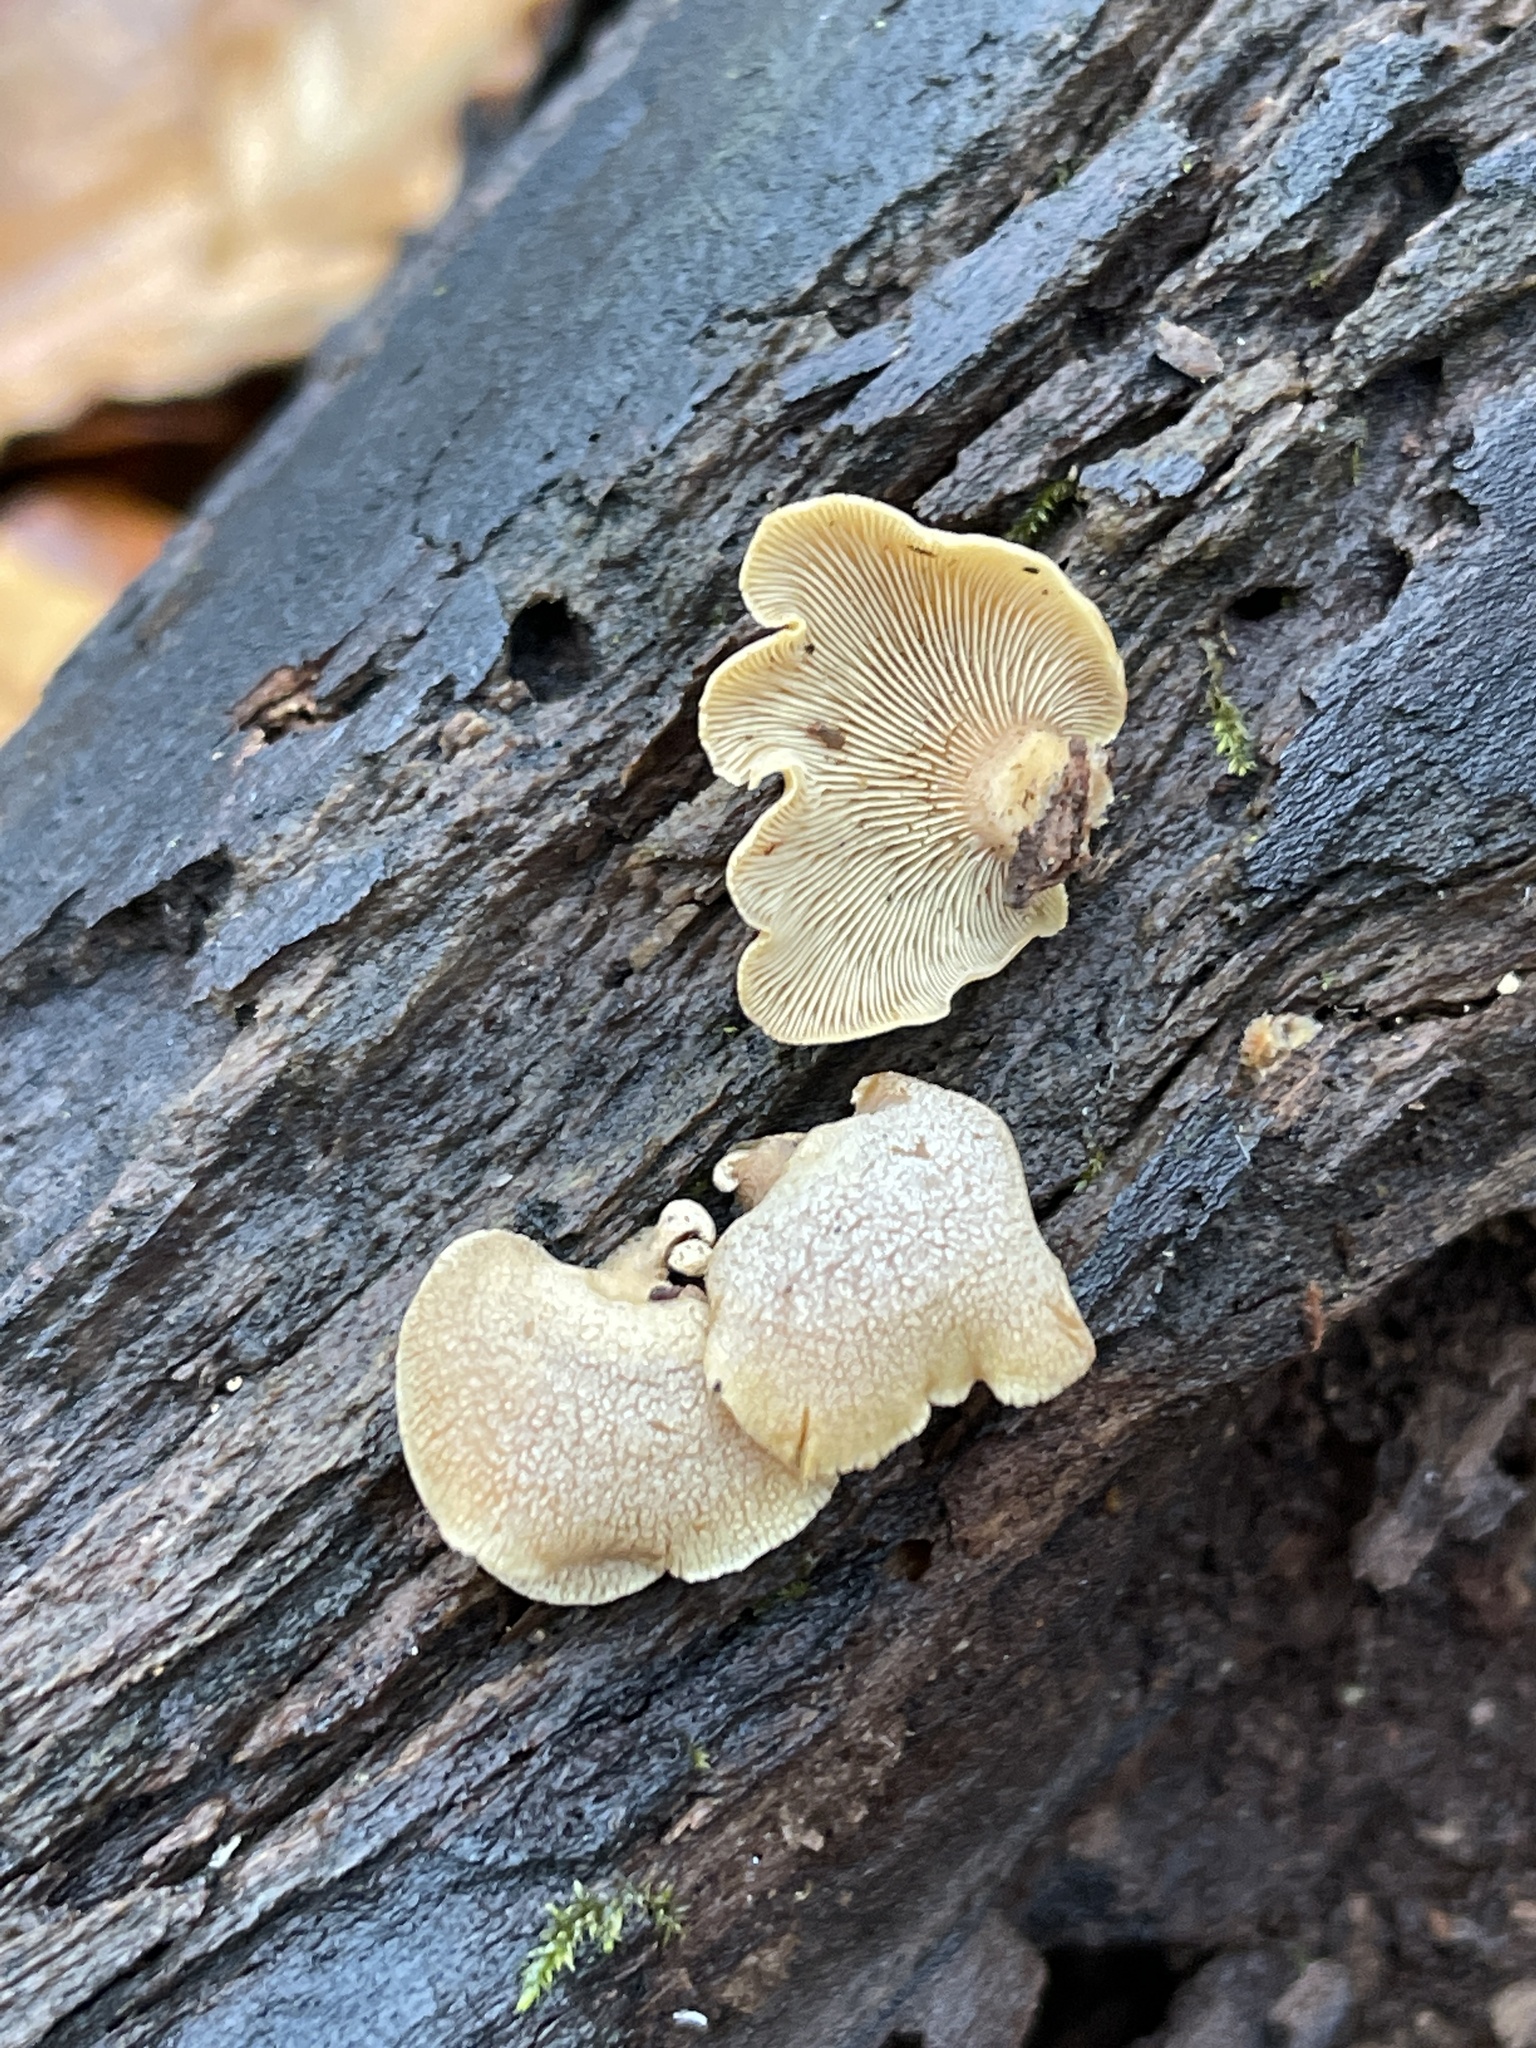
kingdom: Fungi
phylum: Basidiomycota
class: Agaricomycetes
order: Agaricales
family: Mycenaceae
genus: Panellus
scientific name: Panellus stipticus
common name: Bitter oysterling
